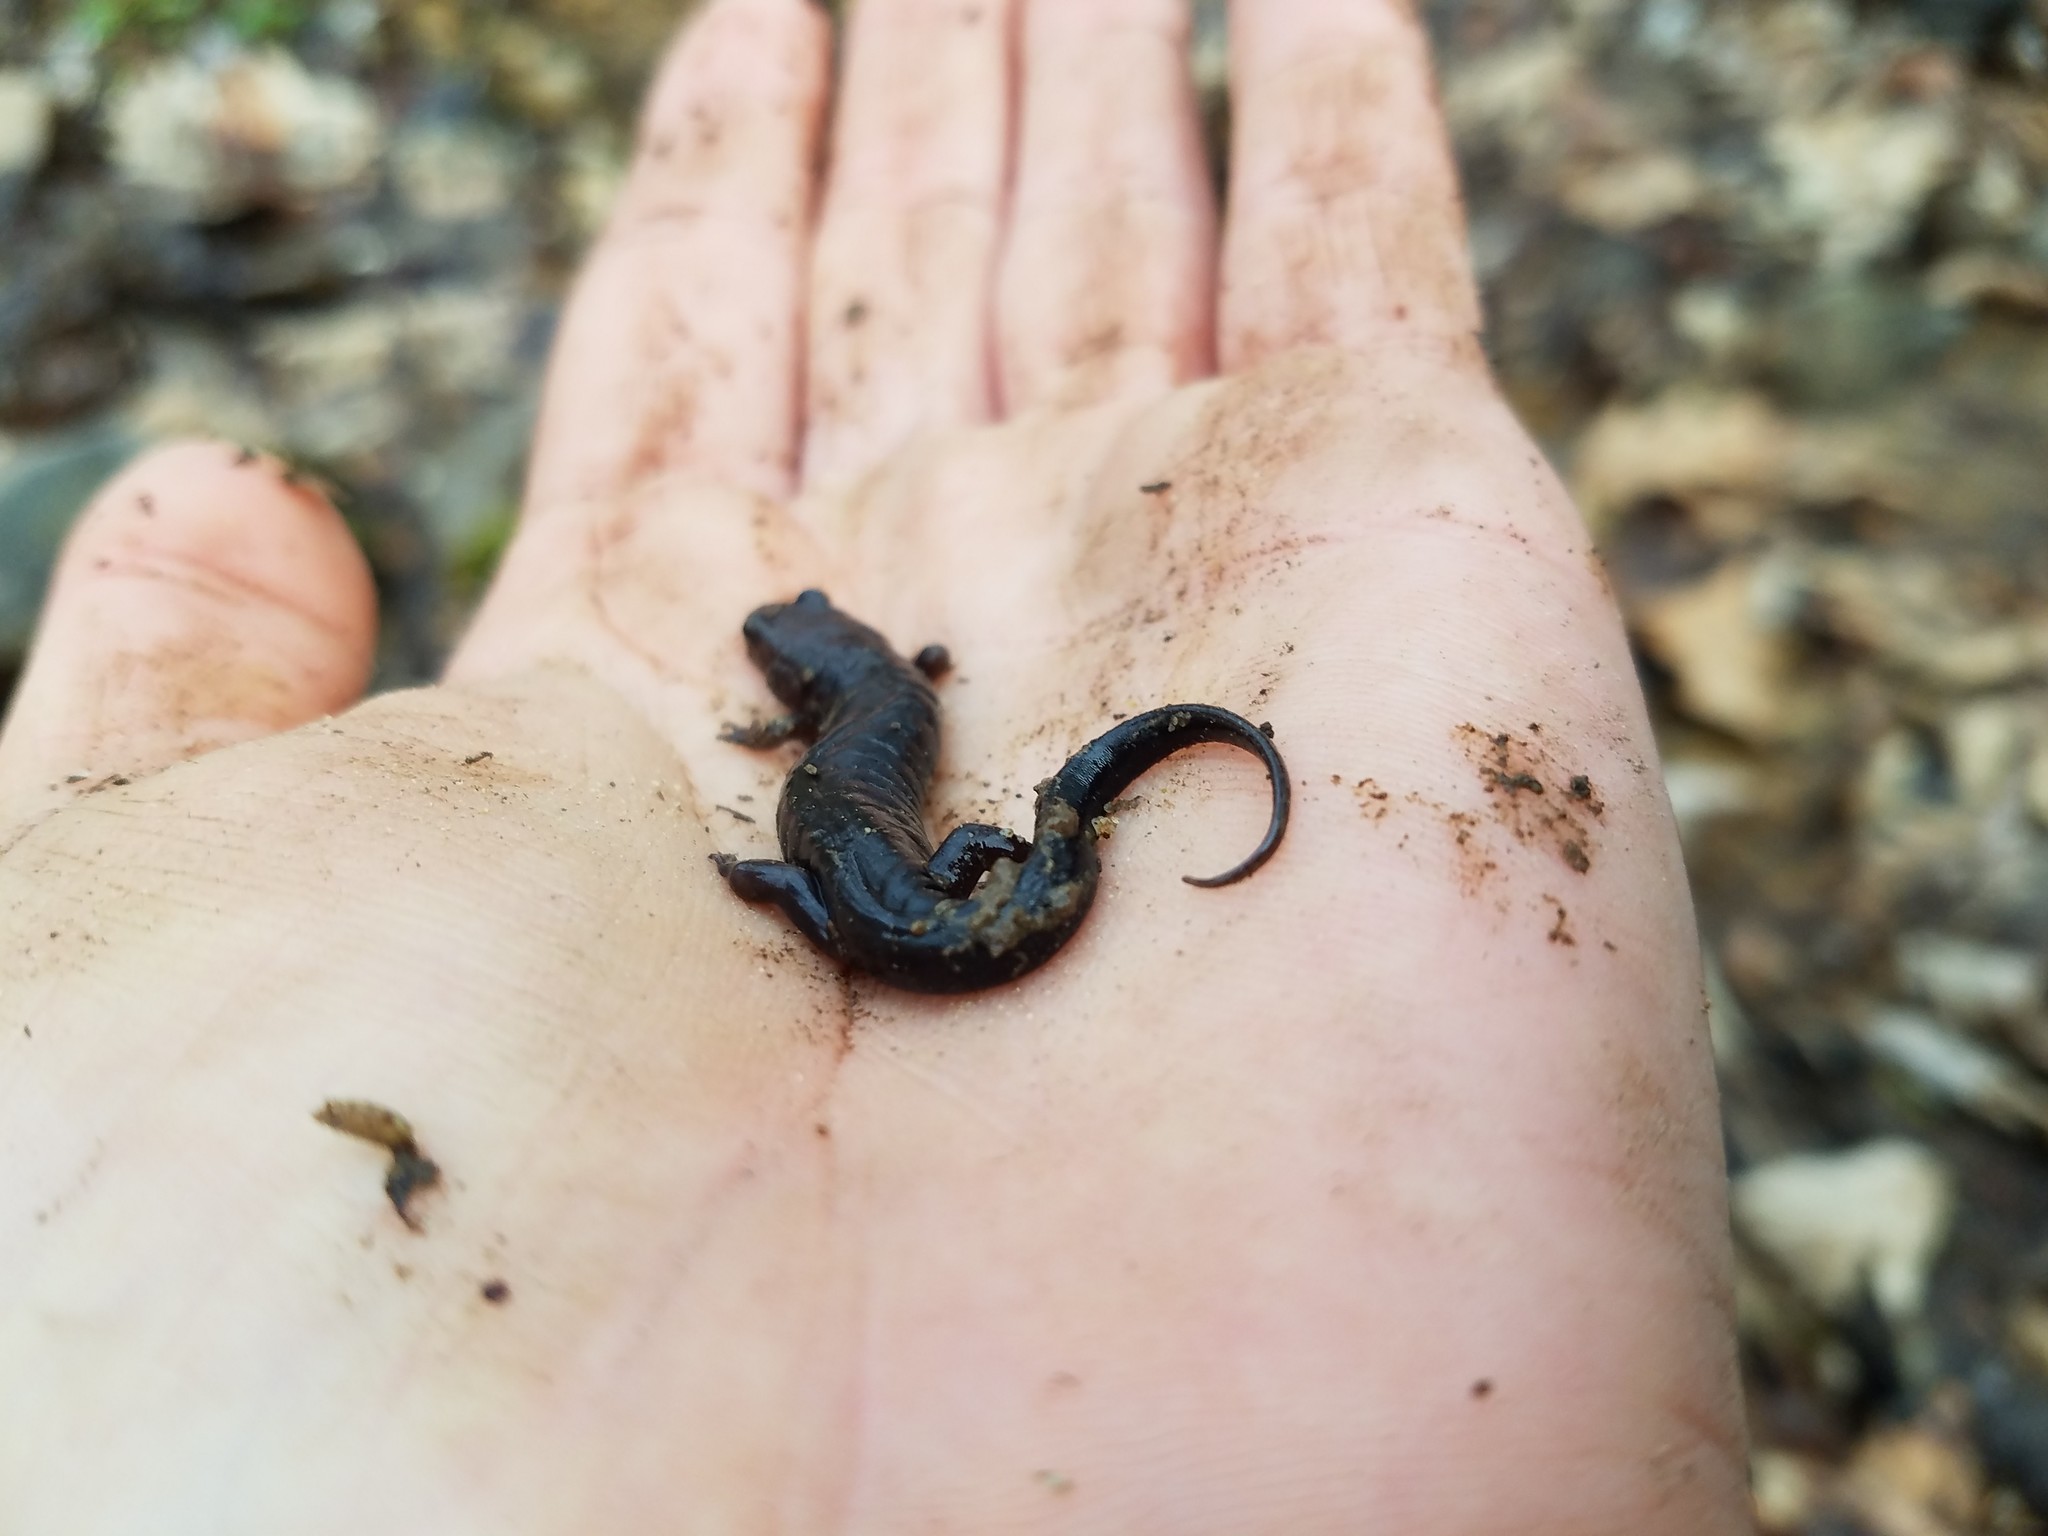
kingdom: Animalia
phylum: Chordata
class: Amphibia
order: Caudata
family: Plethodontidae
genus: Desmognathus
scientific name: Desmognathus ochrophaeus
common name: Allegheny mountain dusky salamander
